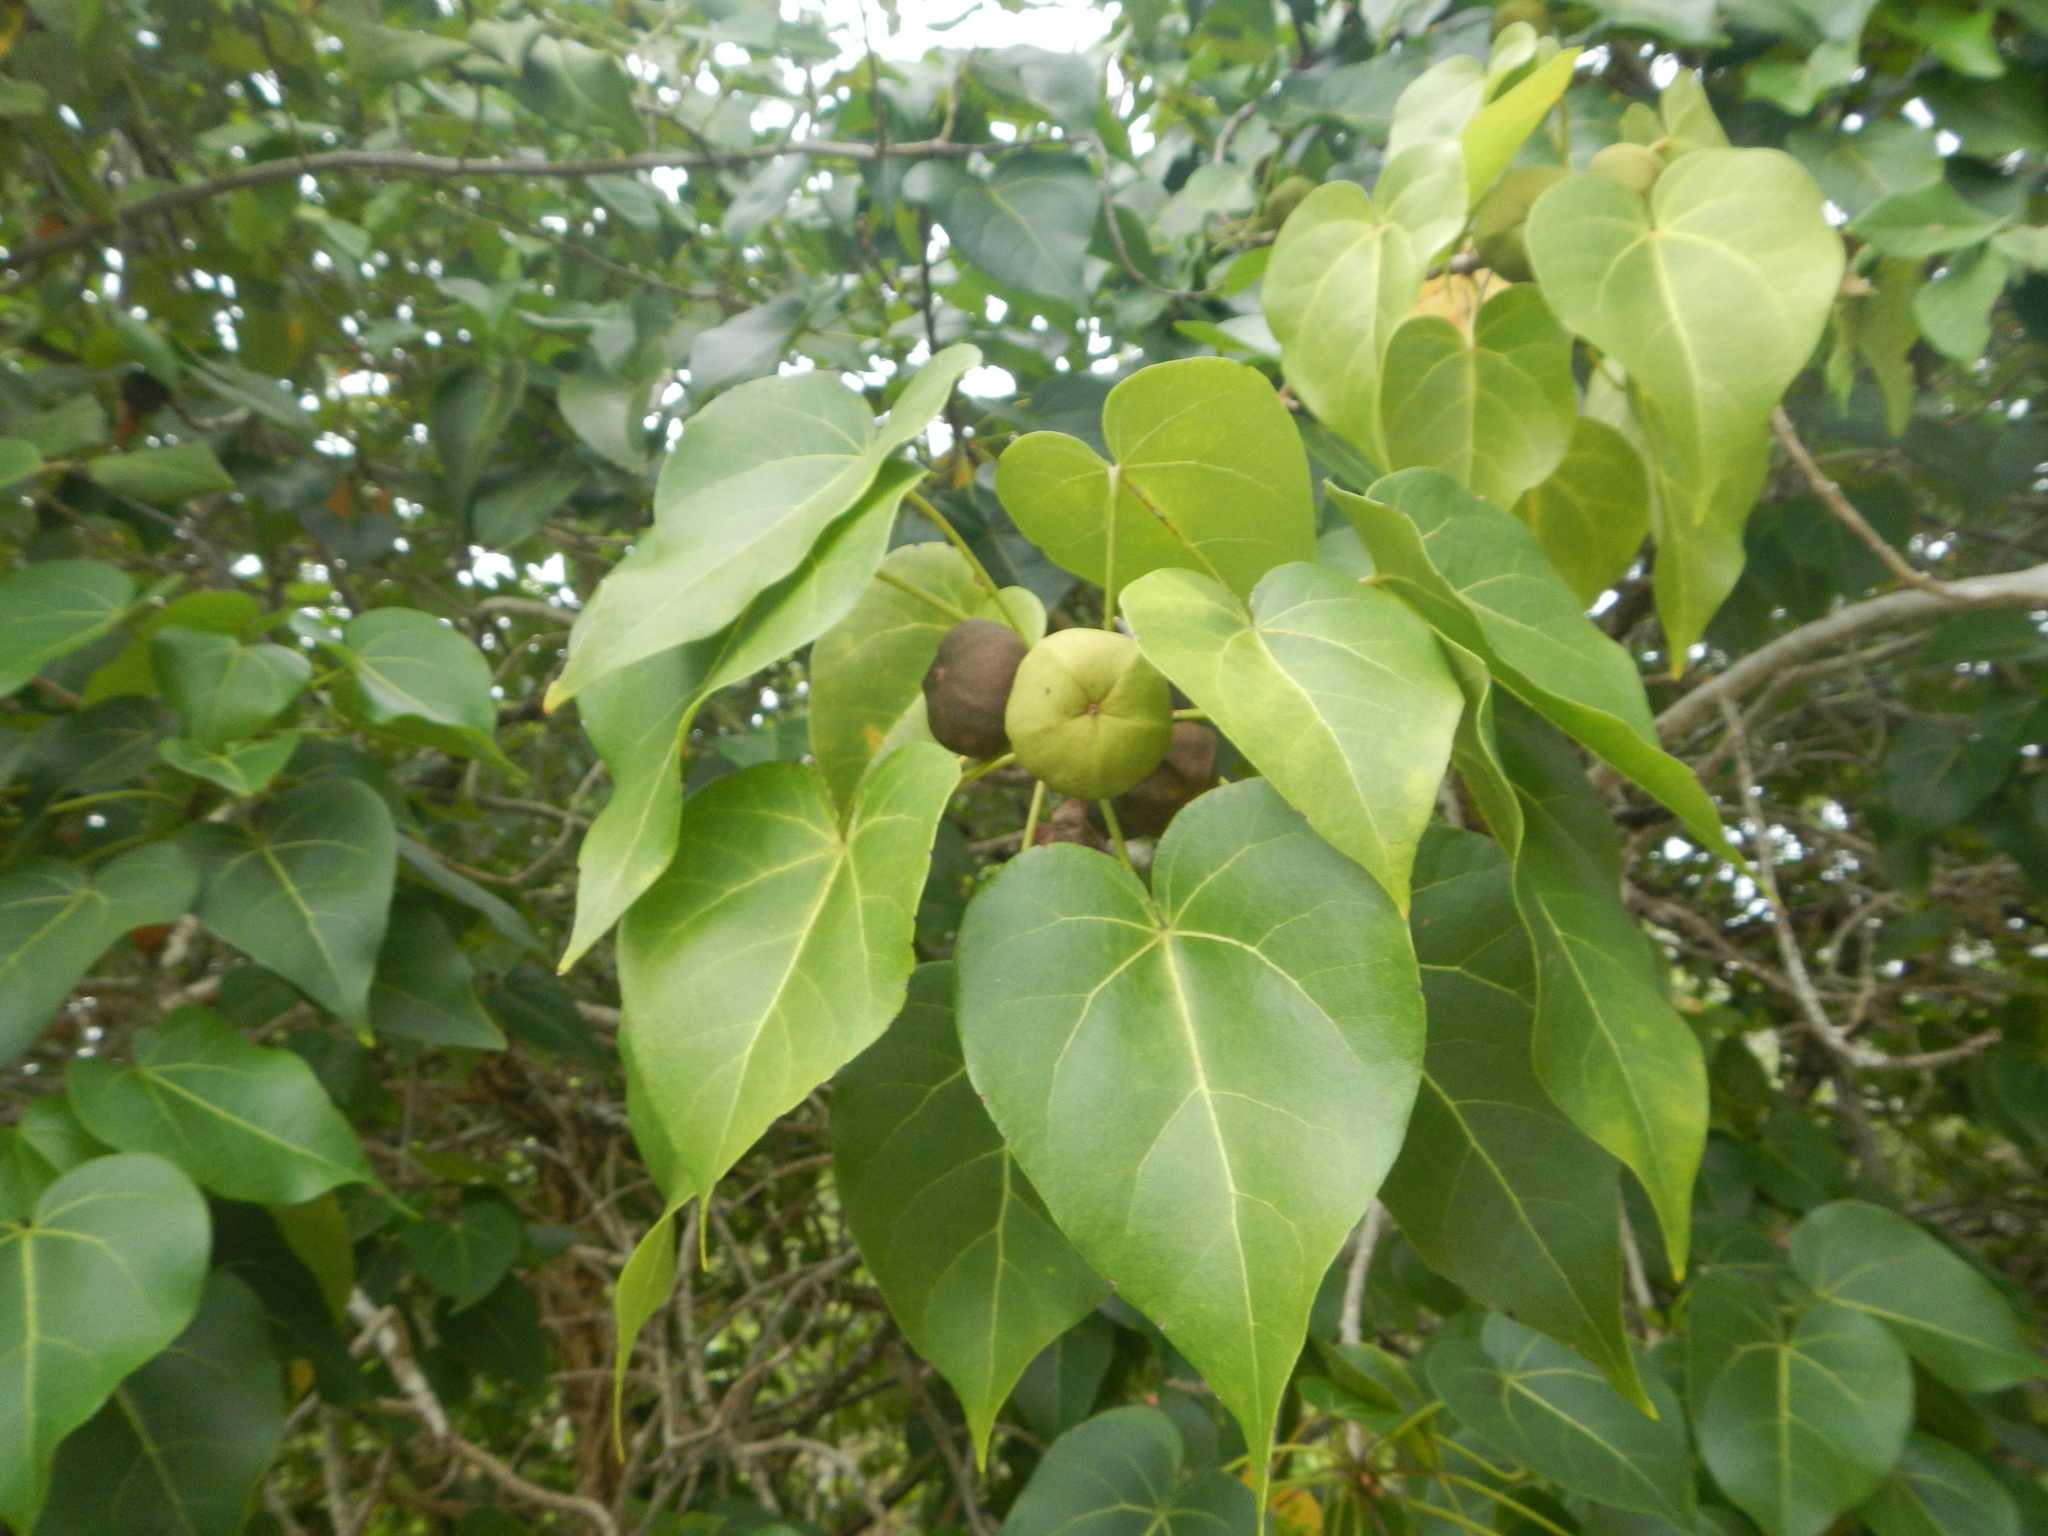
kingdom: Plantae
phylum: Tracheophyta
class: Magnoliopsida
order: Malvales
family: Malvaceae
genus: Thespesia
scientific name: Thespesia populnea
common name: Seaside mahoe
